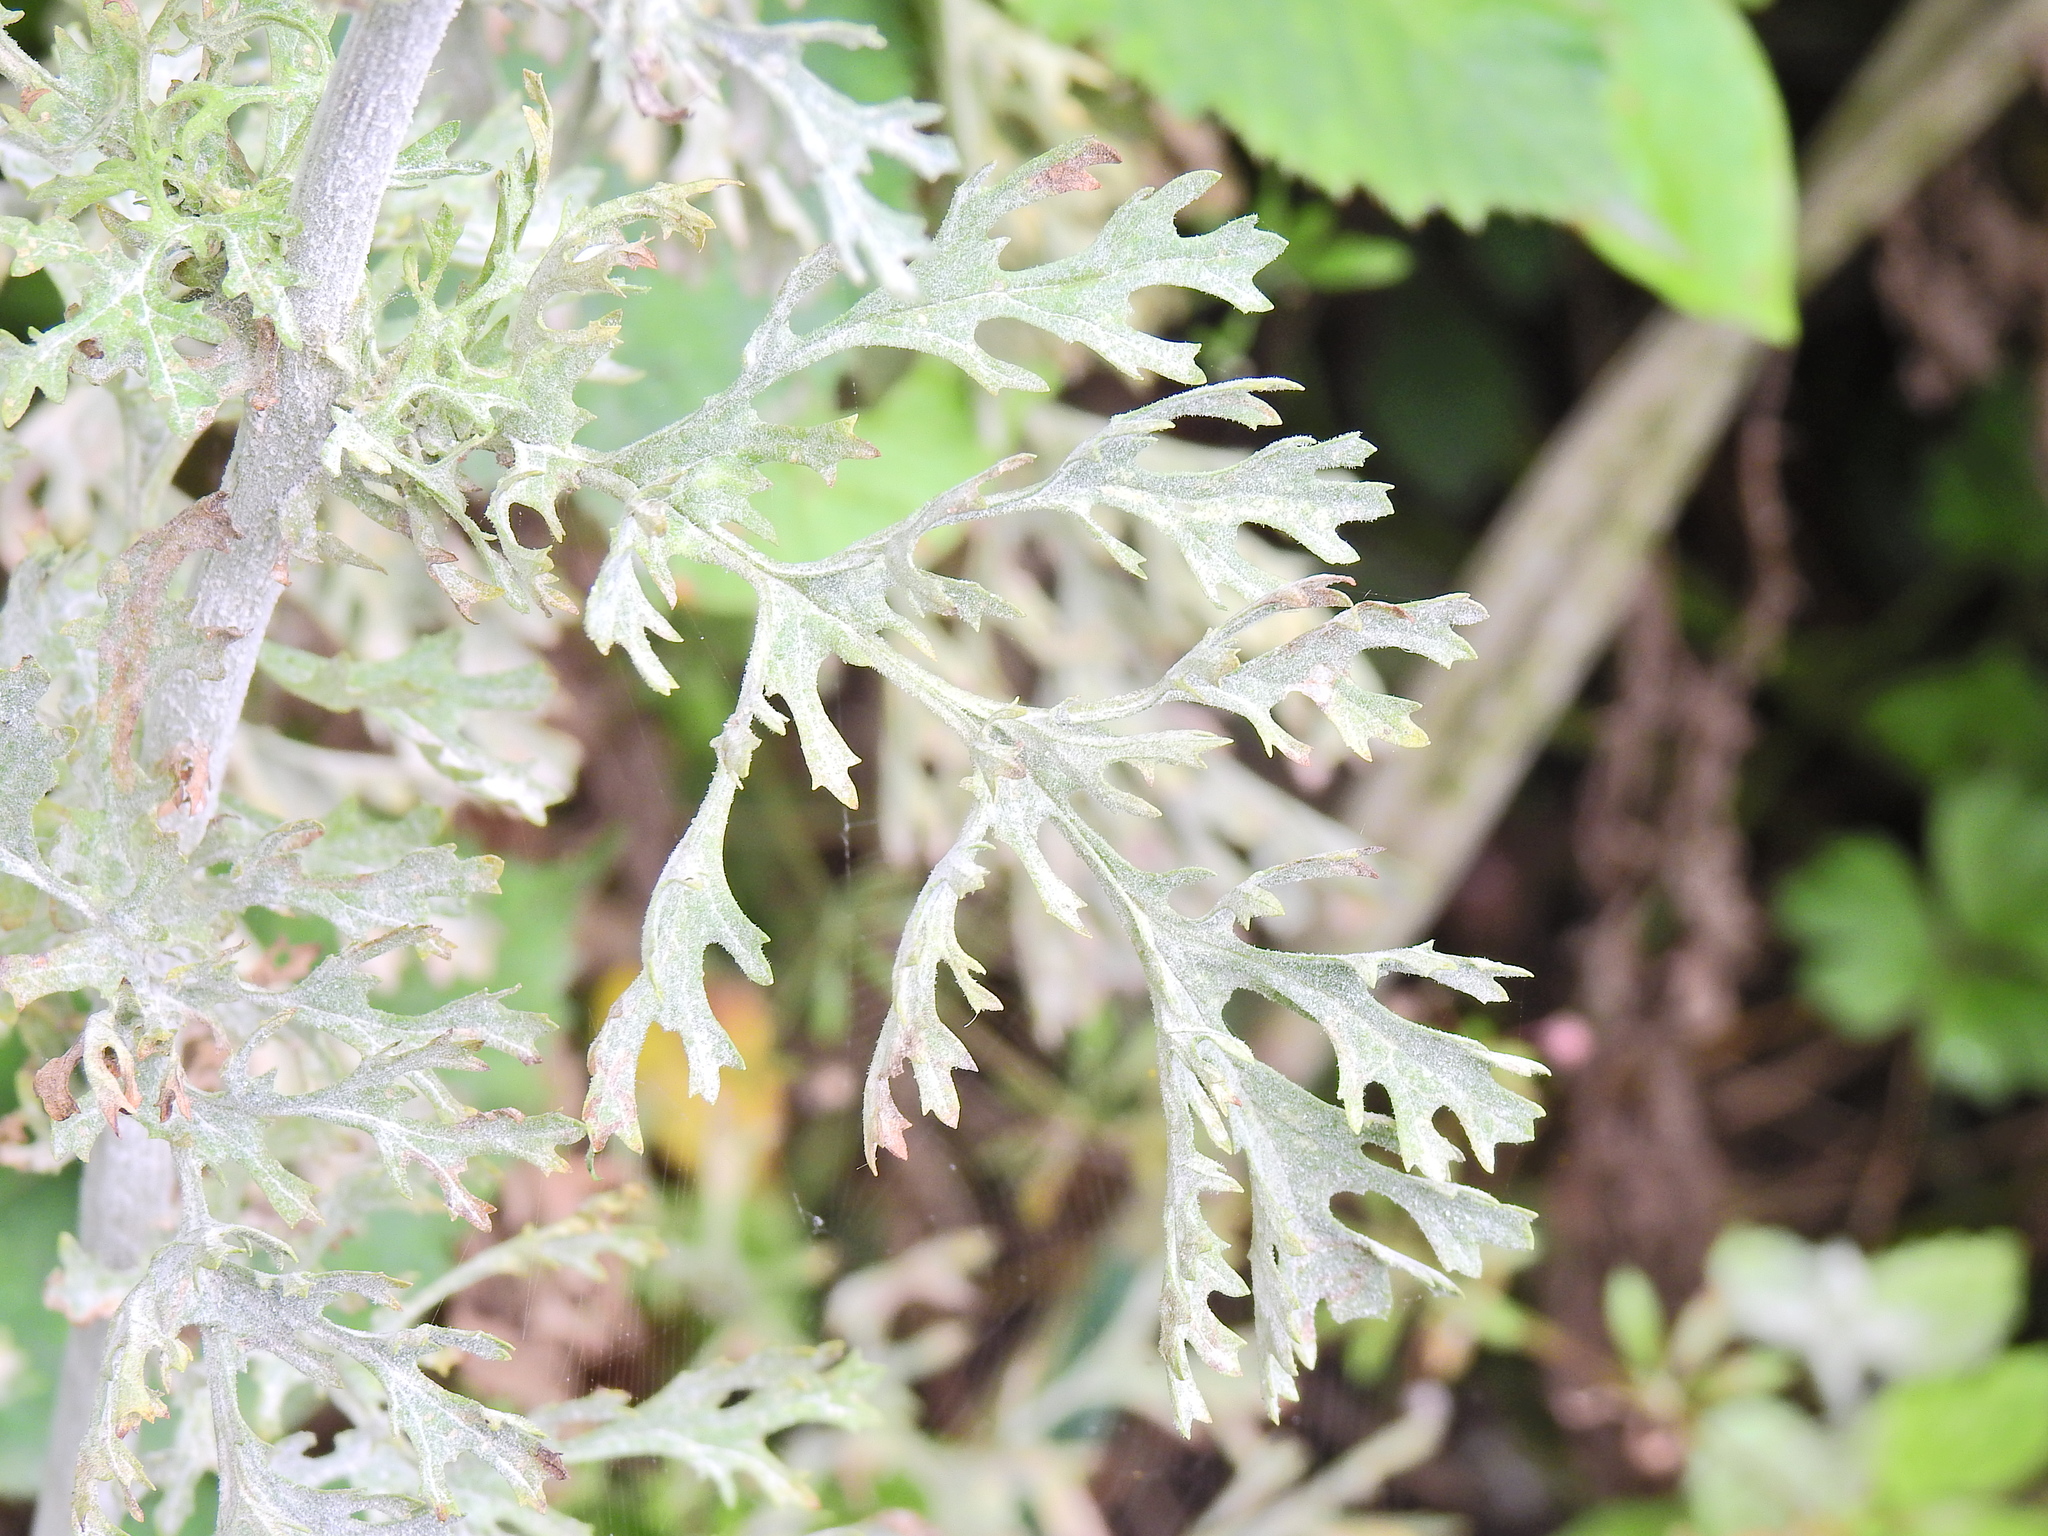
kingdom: Fungi
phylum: Ascomycota
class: Leotiomycetes
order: Helotiales
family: Erysiphaceae
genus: Golovinomyces
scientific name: Golovinomyces senecionis
